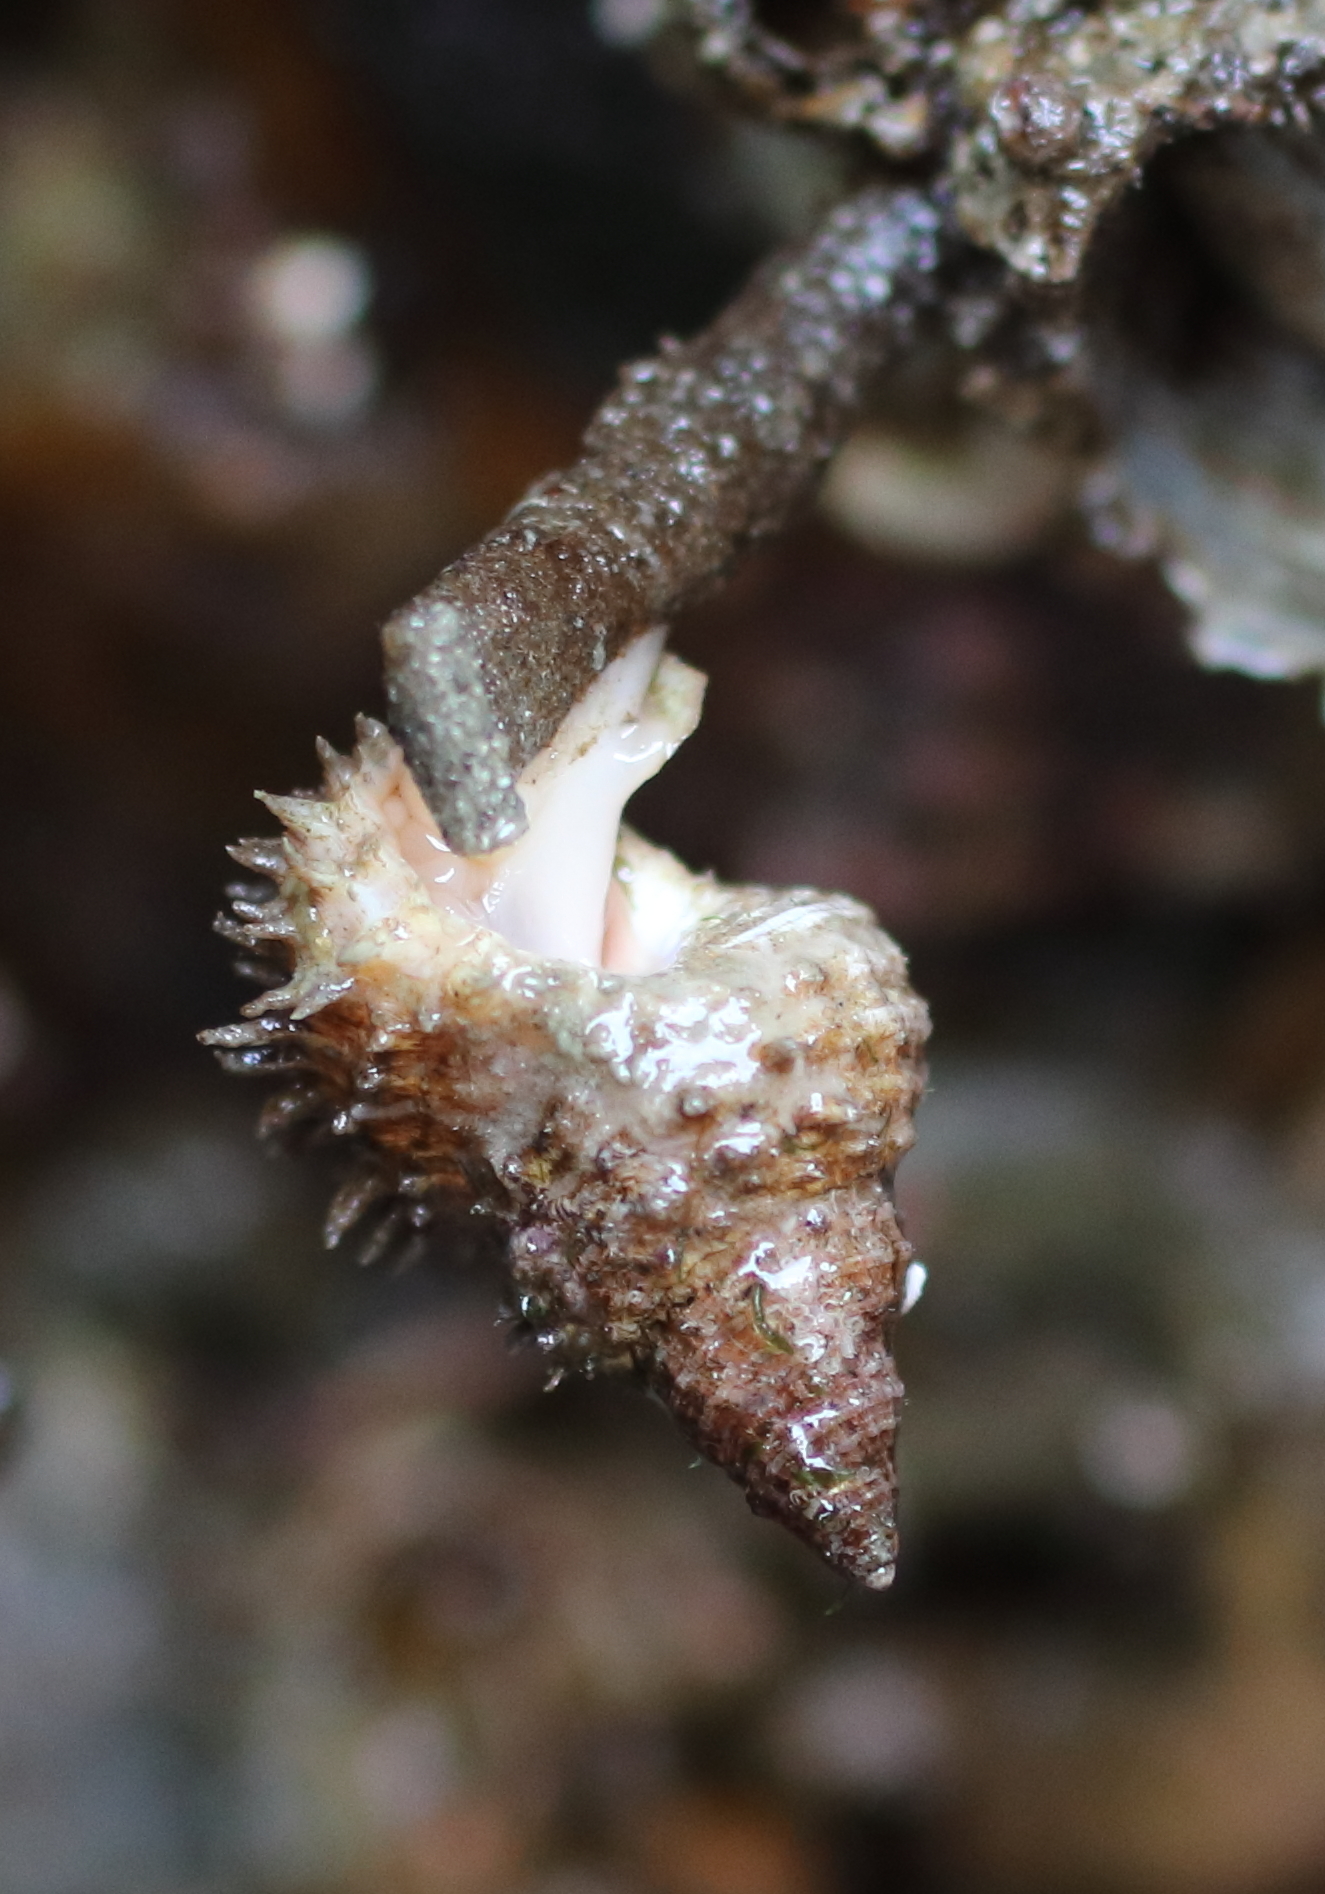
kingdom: Animalia
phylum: Mollusca
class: Gastropoda
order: Littorinimorpha
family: Capulidae
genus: Trichotropis
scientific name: Trichotropis cancellata
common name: Cancellate hairysnail
